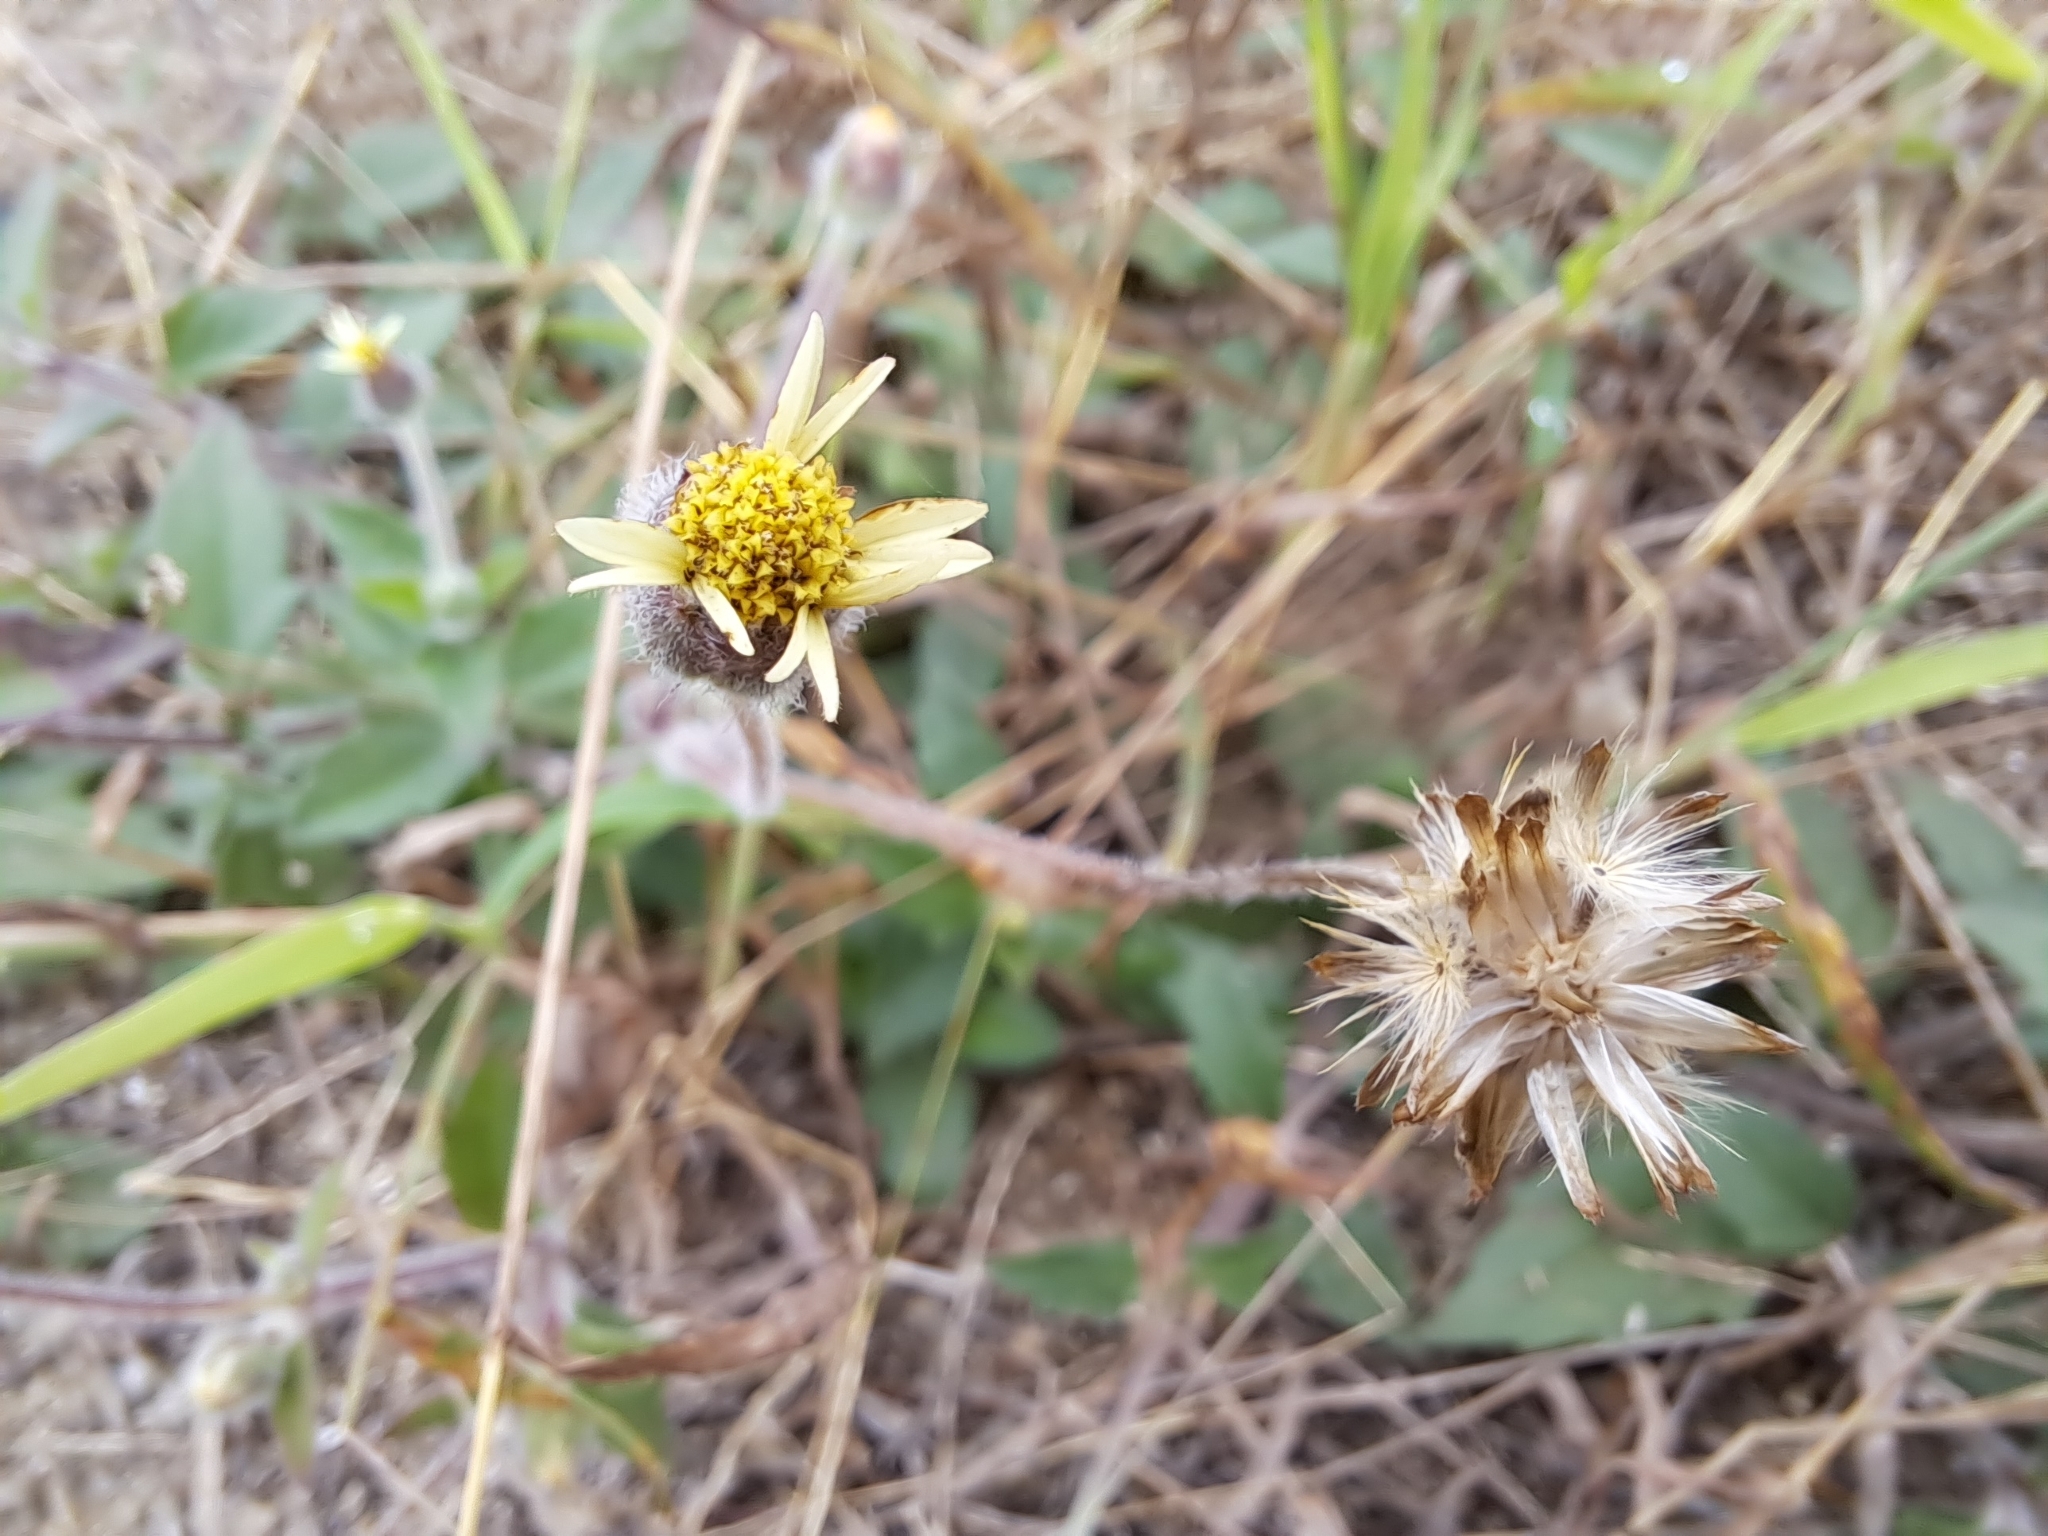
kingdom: Plantae
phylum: Tracheophyta
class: Magnoliopsida
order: Asterales
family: Asteraceae
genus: Tridax
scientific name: Tridax procumbens
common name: Coatbuttons
